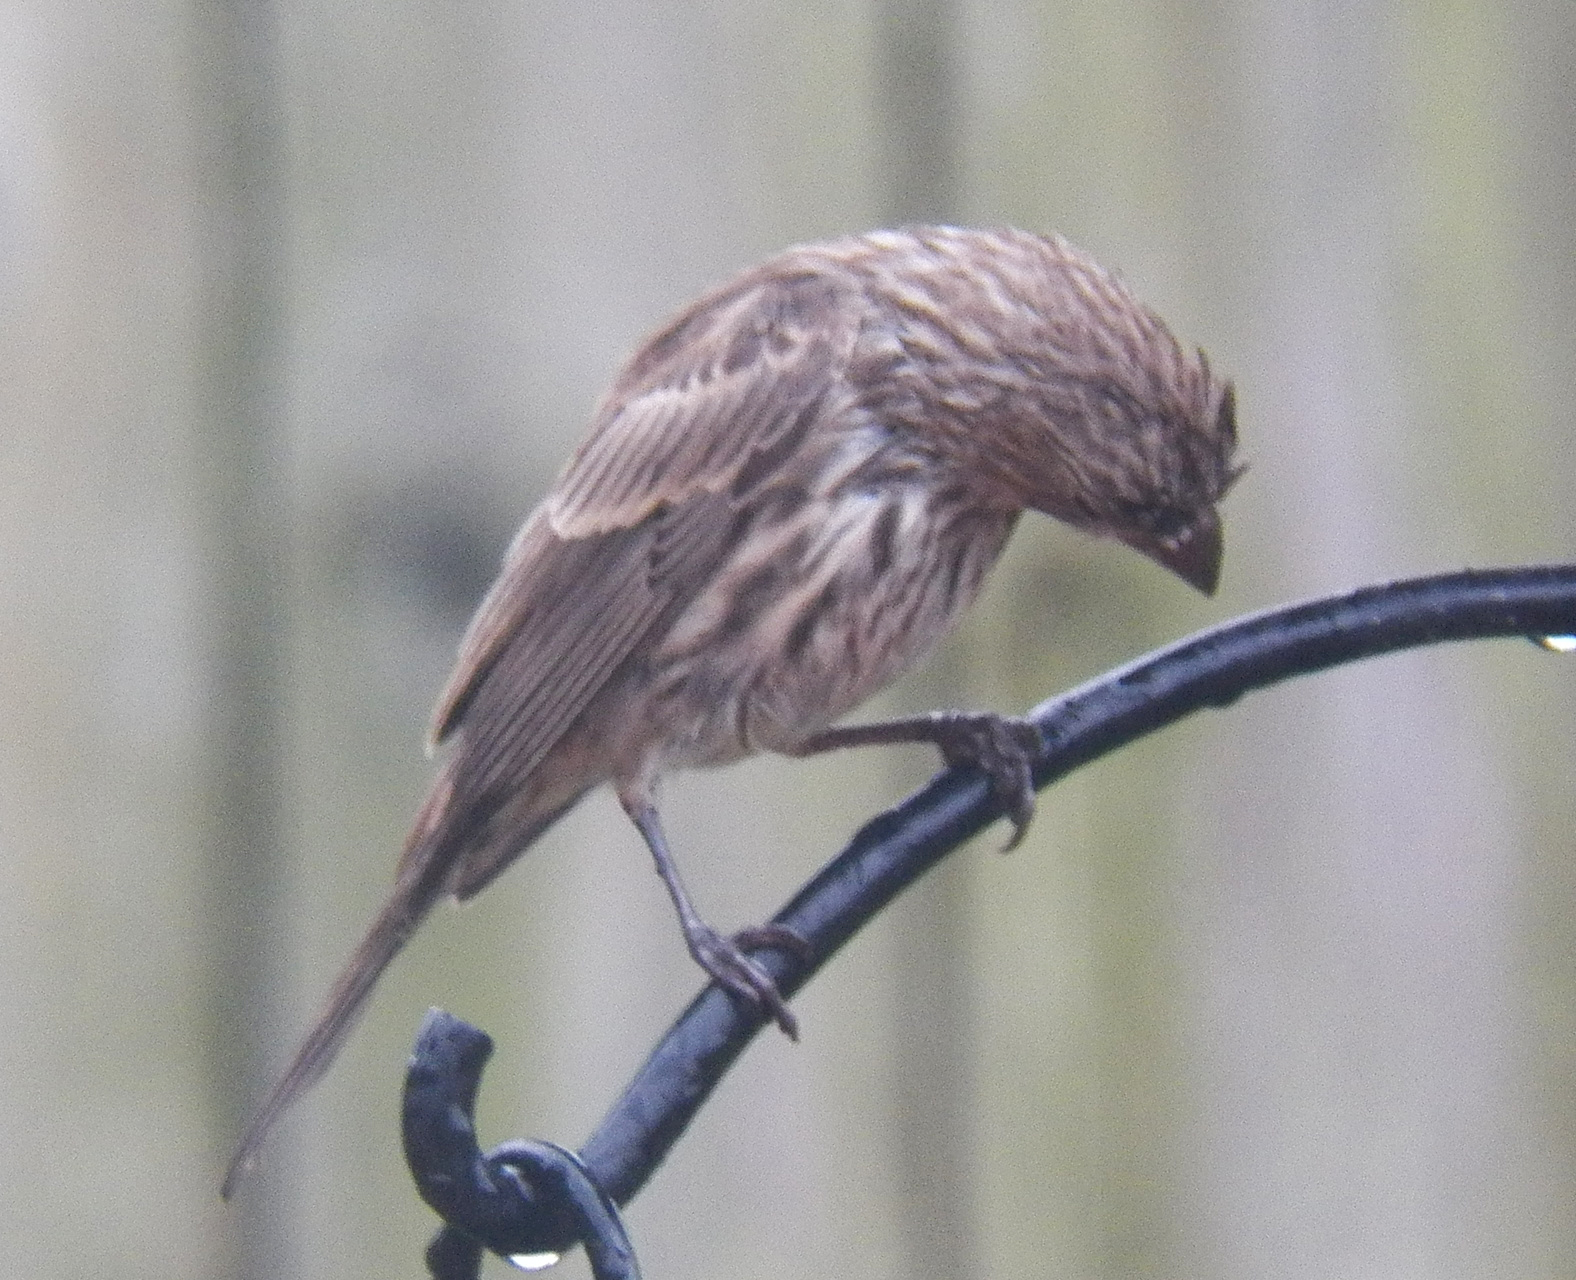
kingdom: Animalia
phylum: Chordata
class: Aves
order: Passeriformes
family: Fringillidae
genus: Haemorhous
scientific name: Haemorhous mexicanus
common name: House finch
